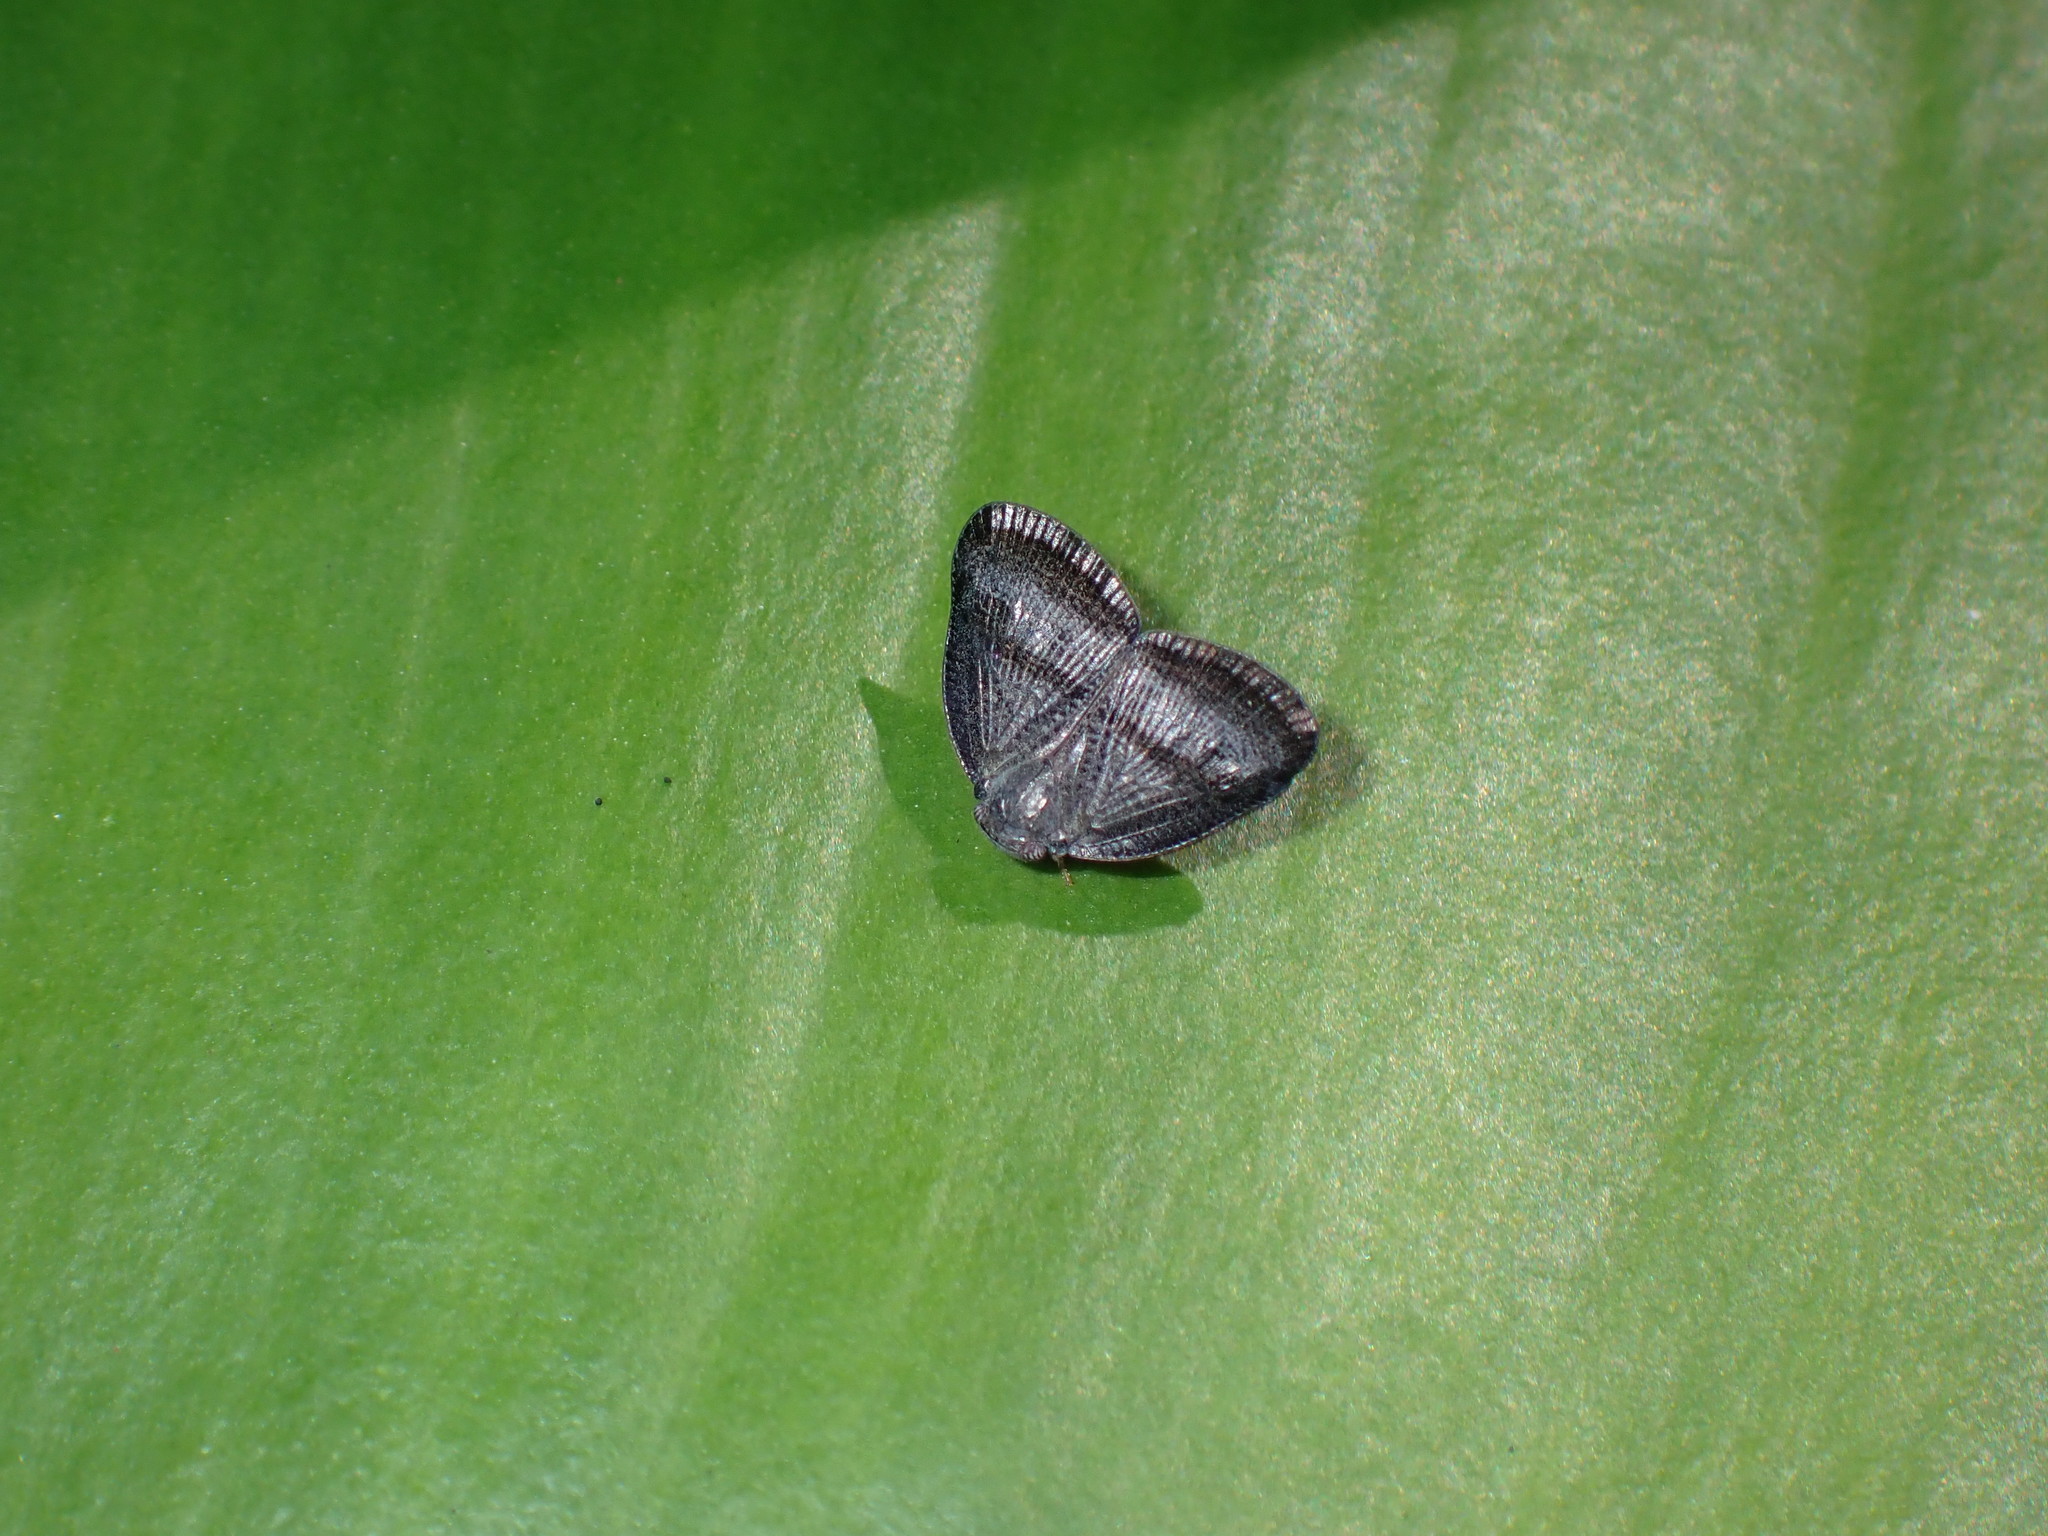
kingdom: Animalia
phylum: Arthropoda
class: Insecta
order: Hemiptera
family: Ricaniidae
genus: Ricania
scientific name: Ricania taeniata
